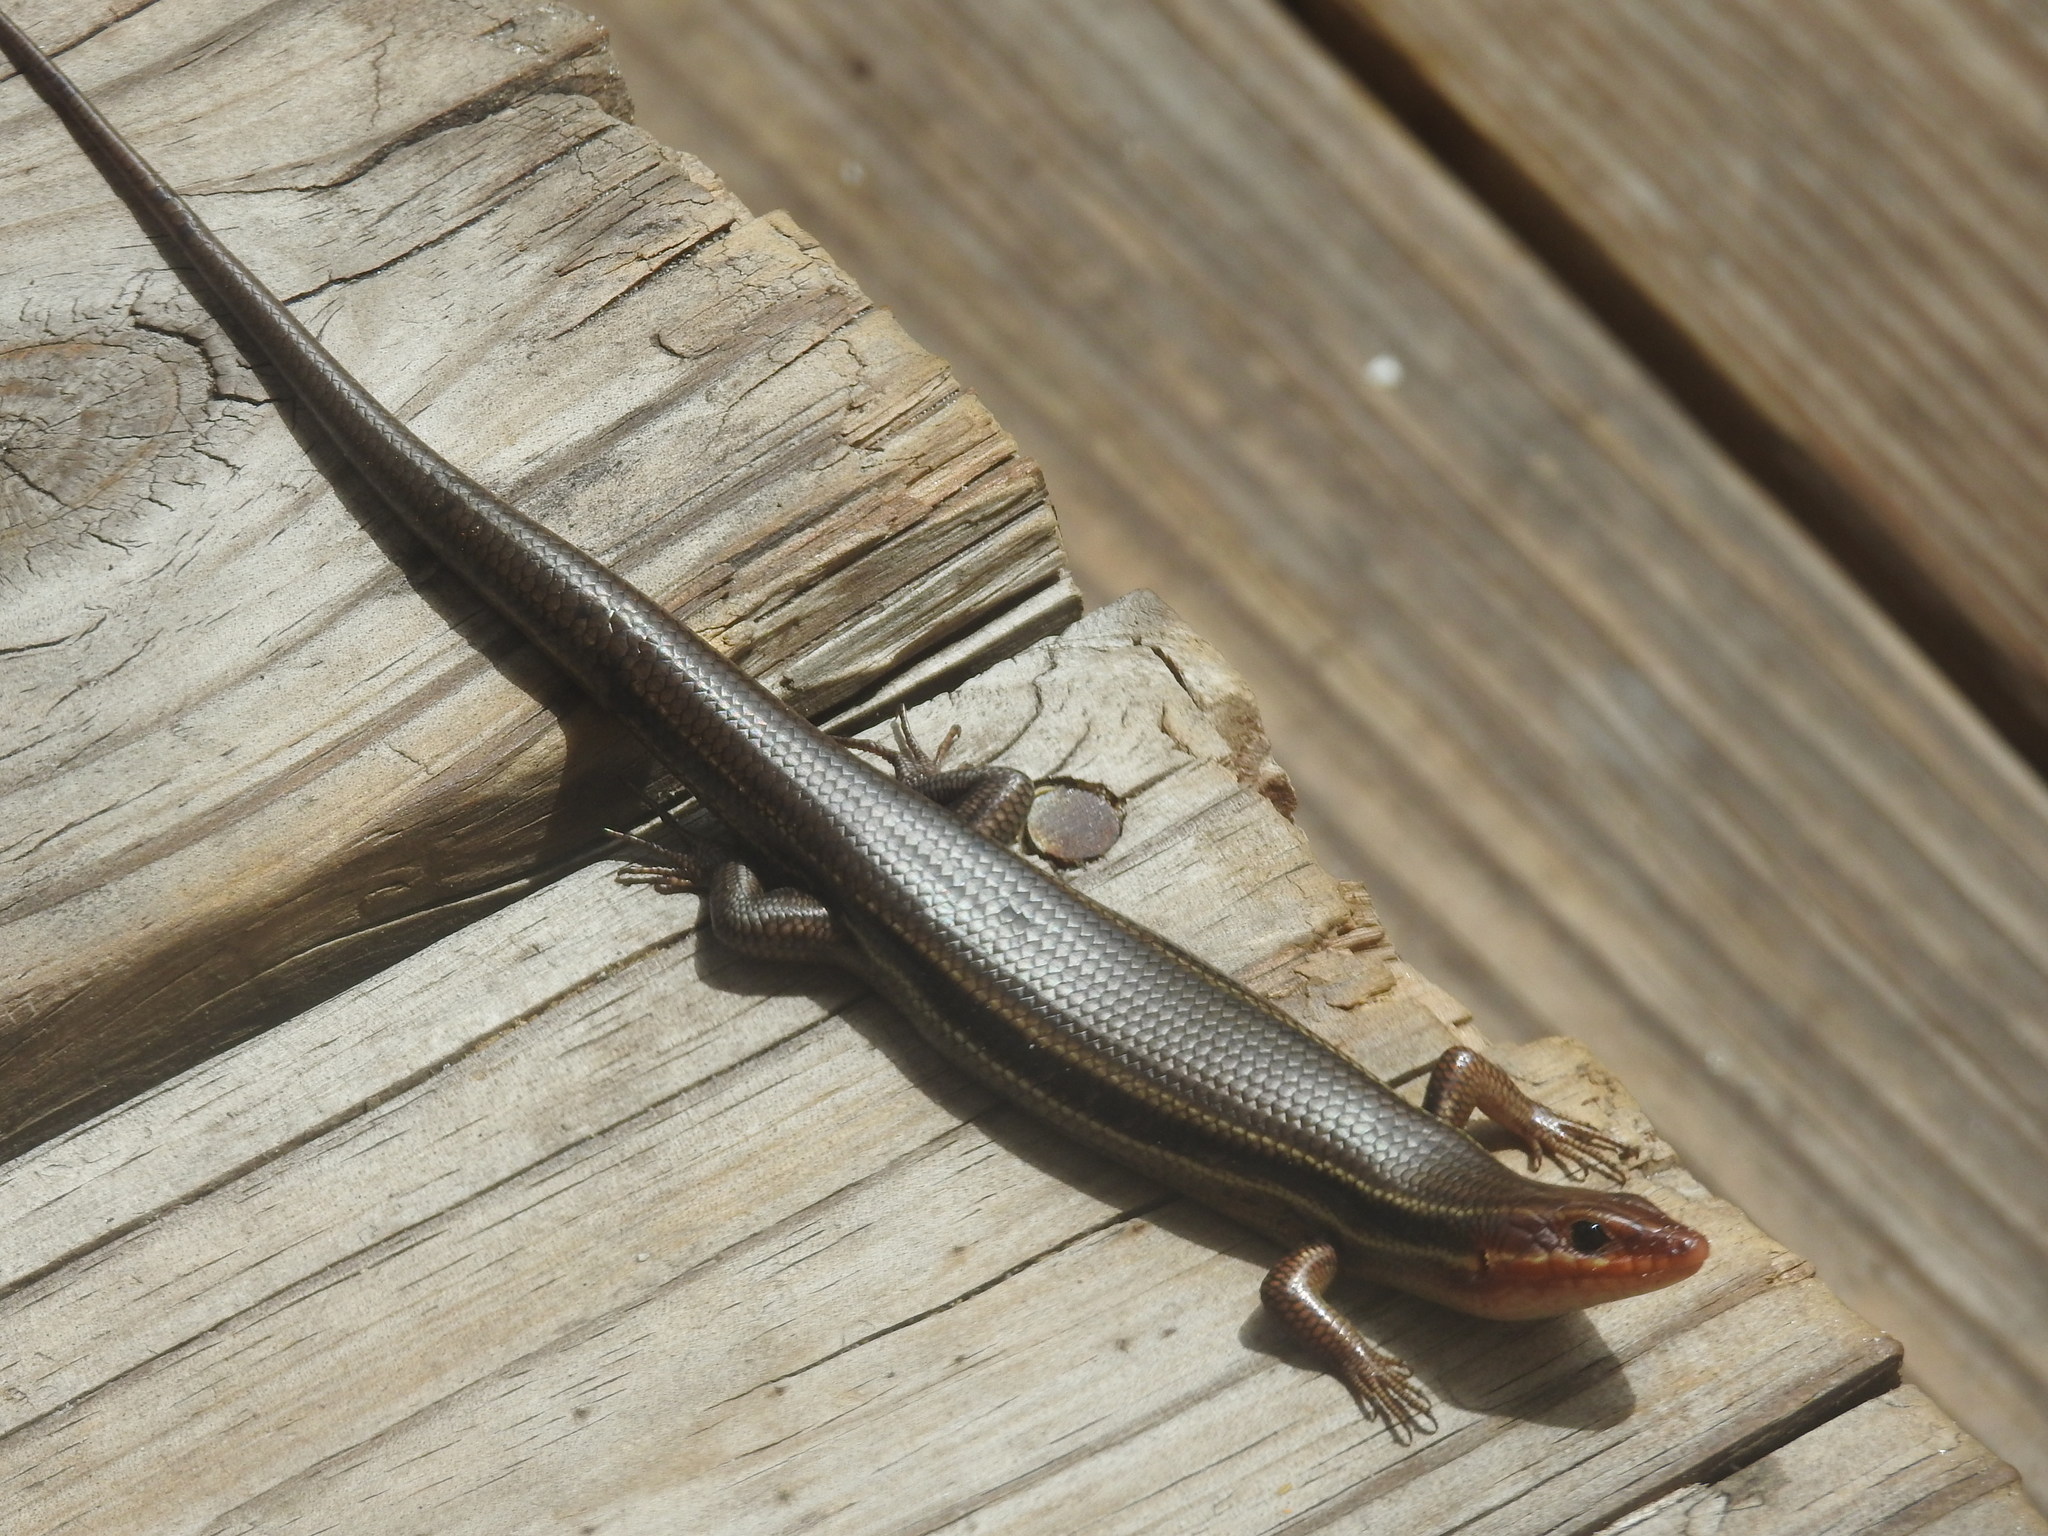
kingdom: Animalia
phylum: Chordata
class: Squamata
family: Scincidae
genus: Plestiodon
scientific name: Plestiodon inexpectatus
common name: Southeastern five-lined skink
